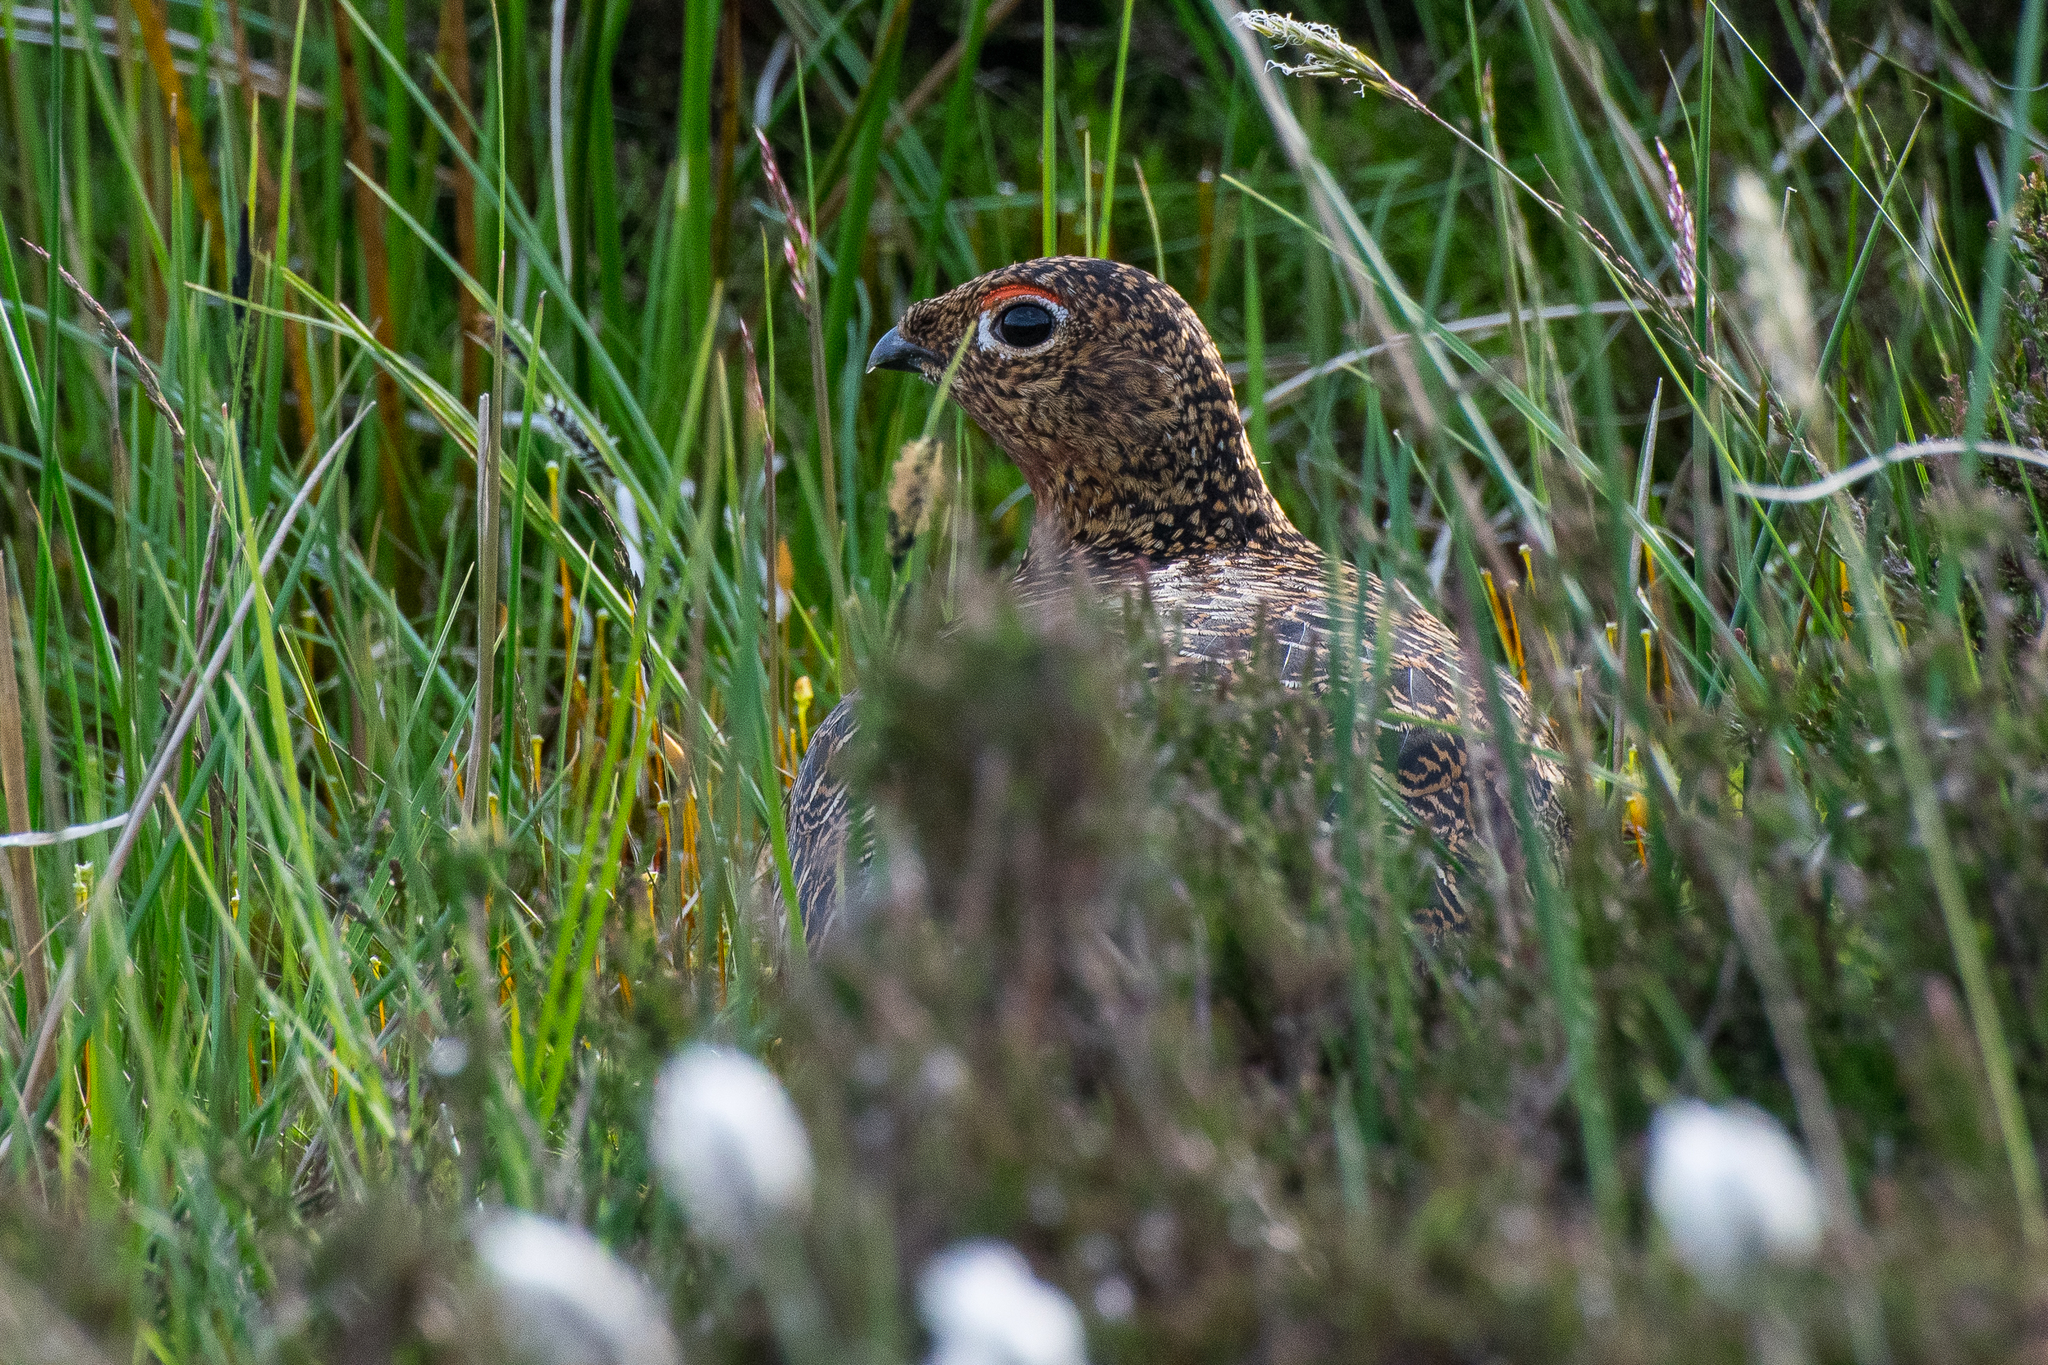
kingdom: Animalia
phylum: Chordata
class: Aves
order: Galliformes
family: Phasianidae
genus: Lagopus
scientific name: Lagopus lagopus
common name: Willow ptarmigan
